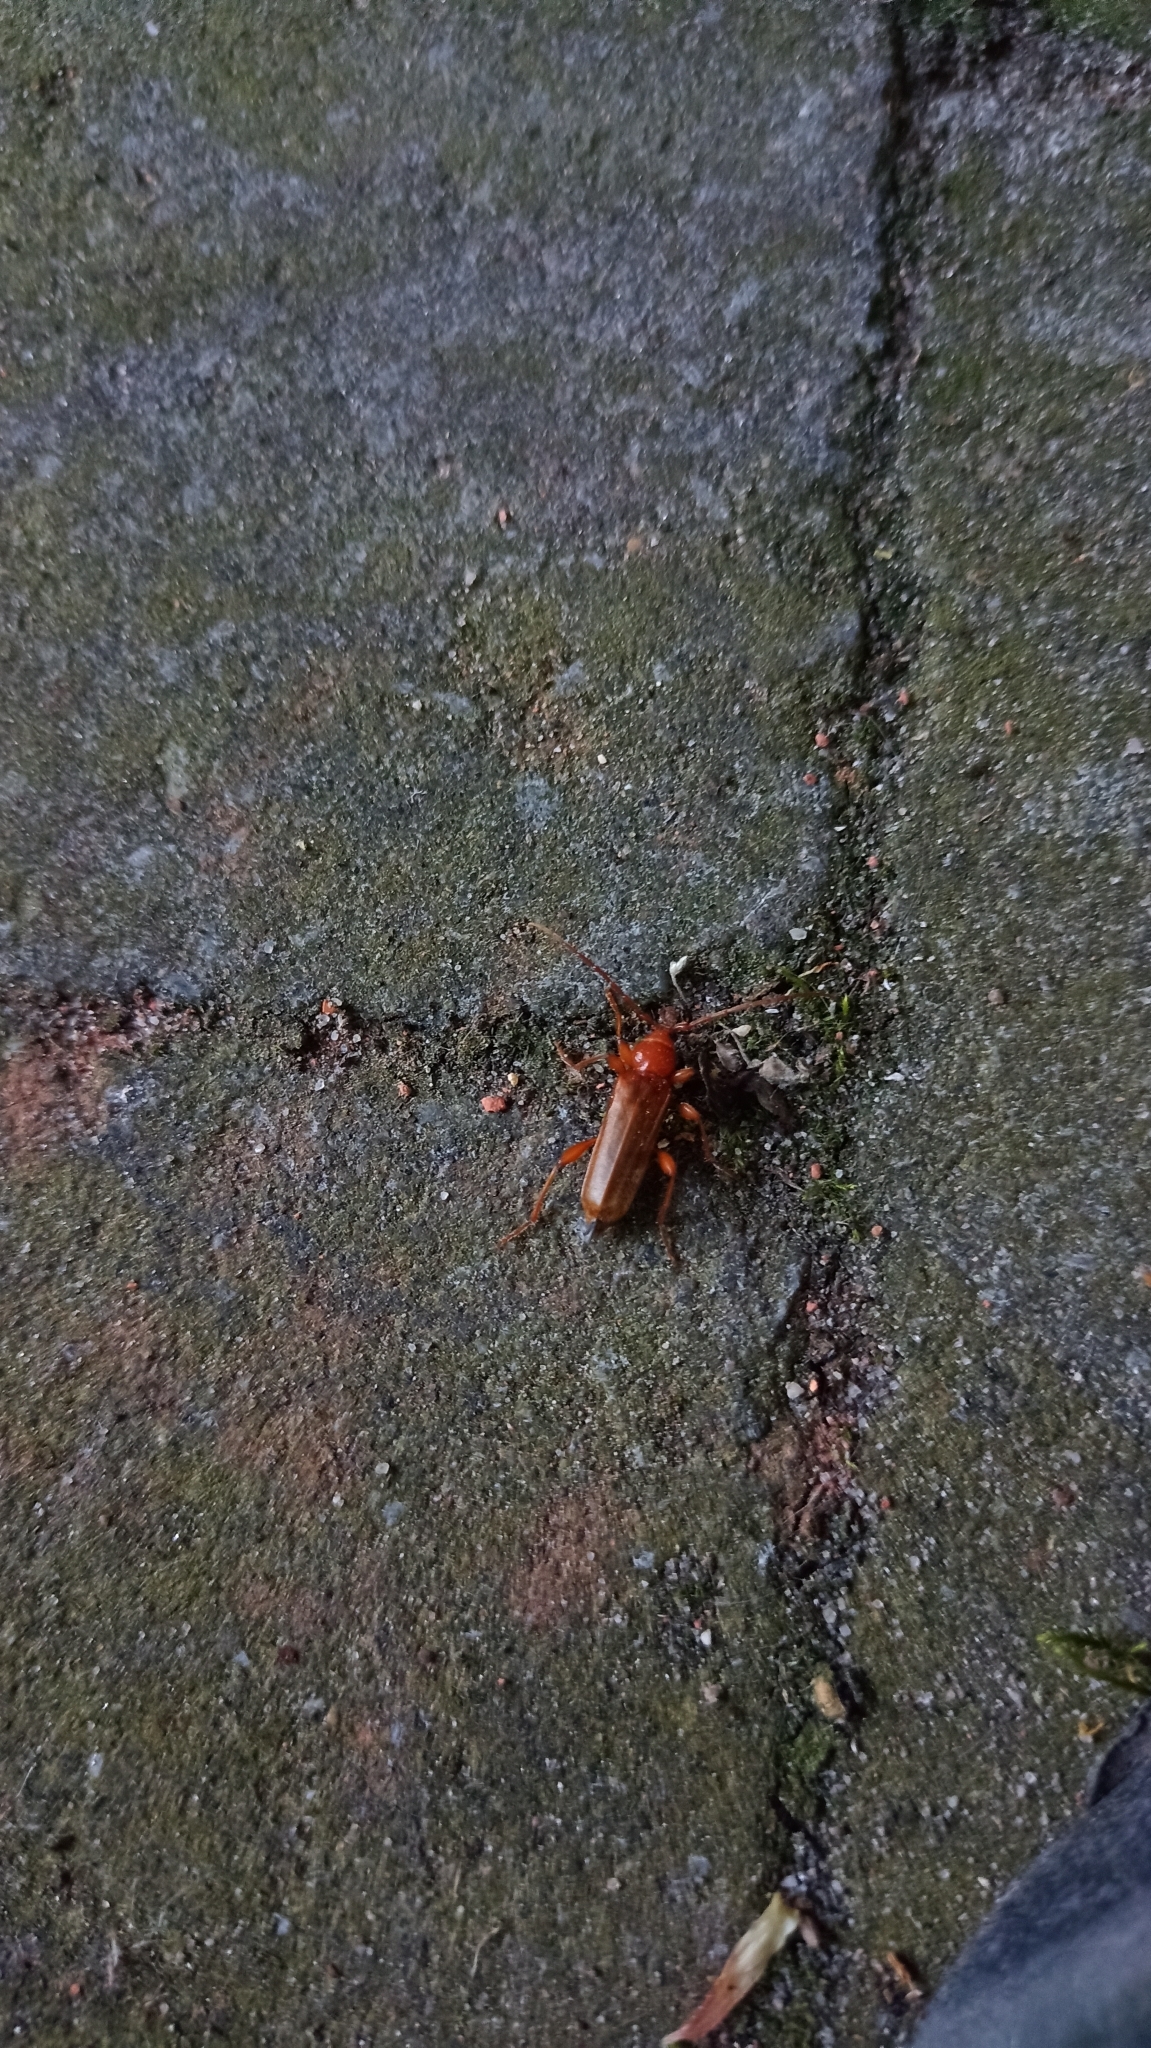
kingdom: Animalia
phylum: Arthropoda
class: Insecta
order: Coleoptera
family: Cerambycidae
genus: Phymatodes
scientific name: Phymatodes testaceus
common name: Long-horned beetle
